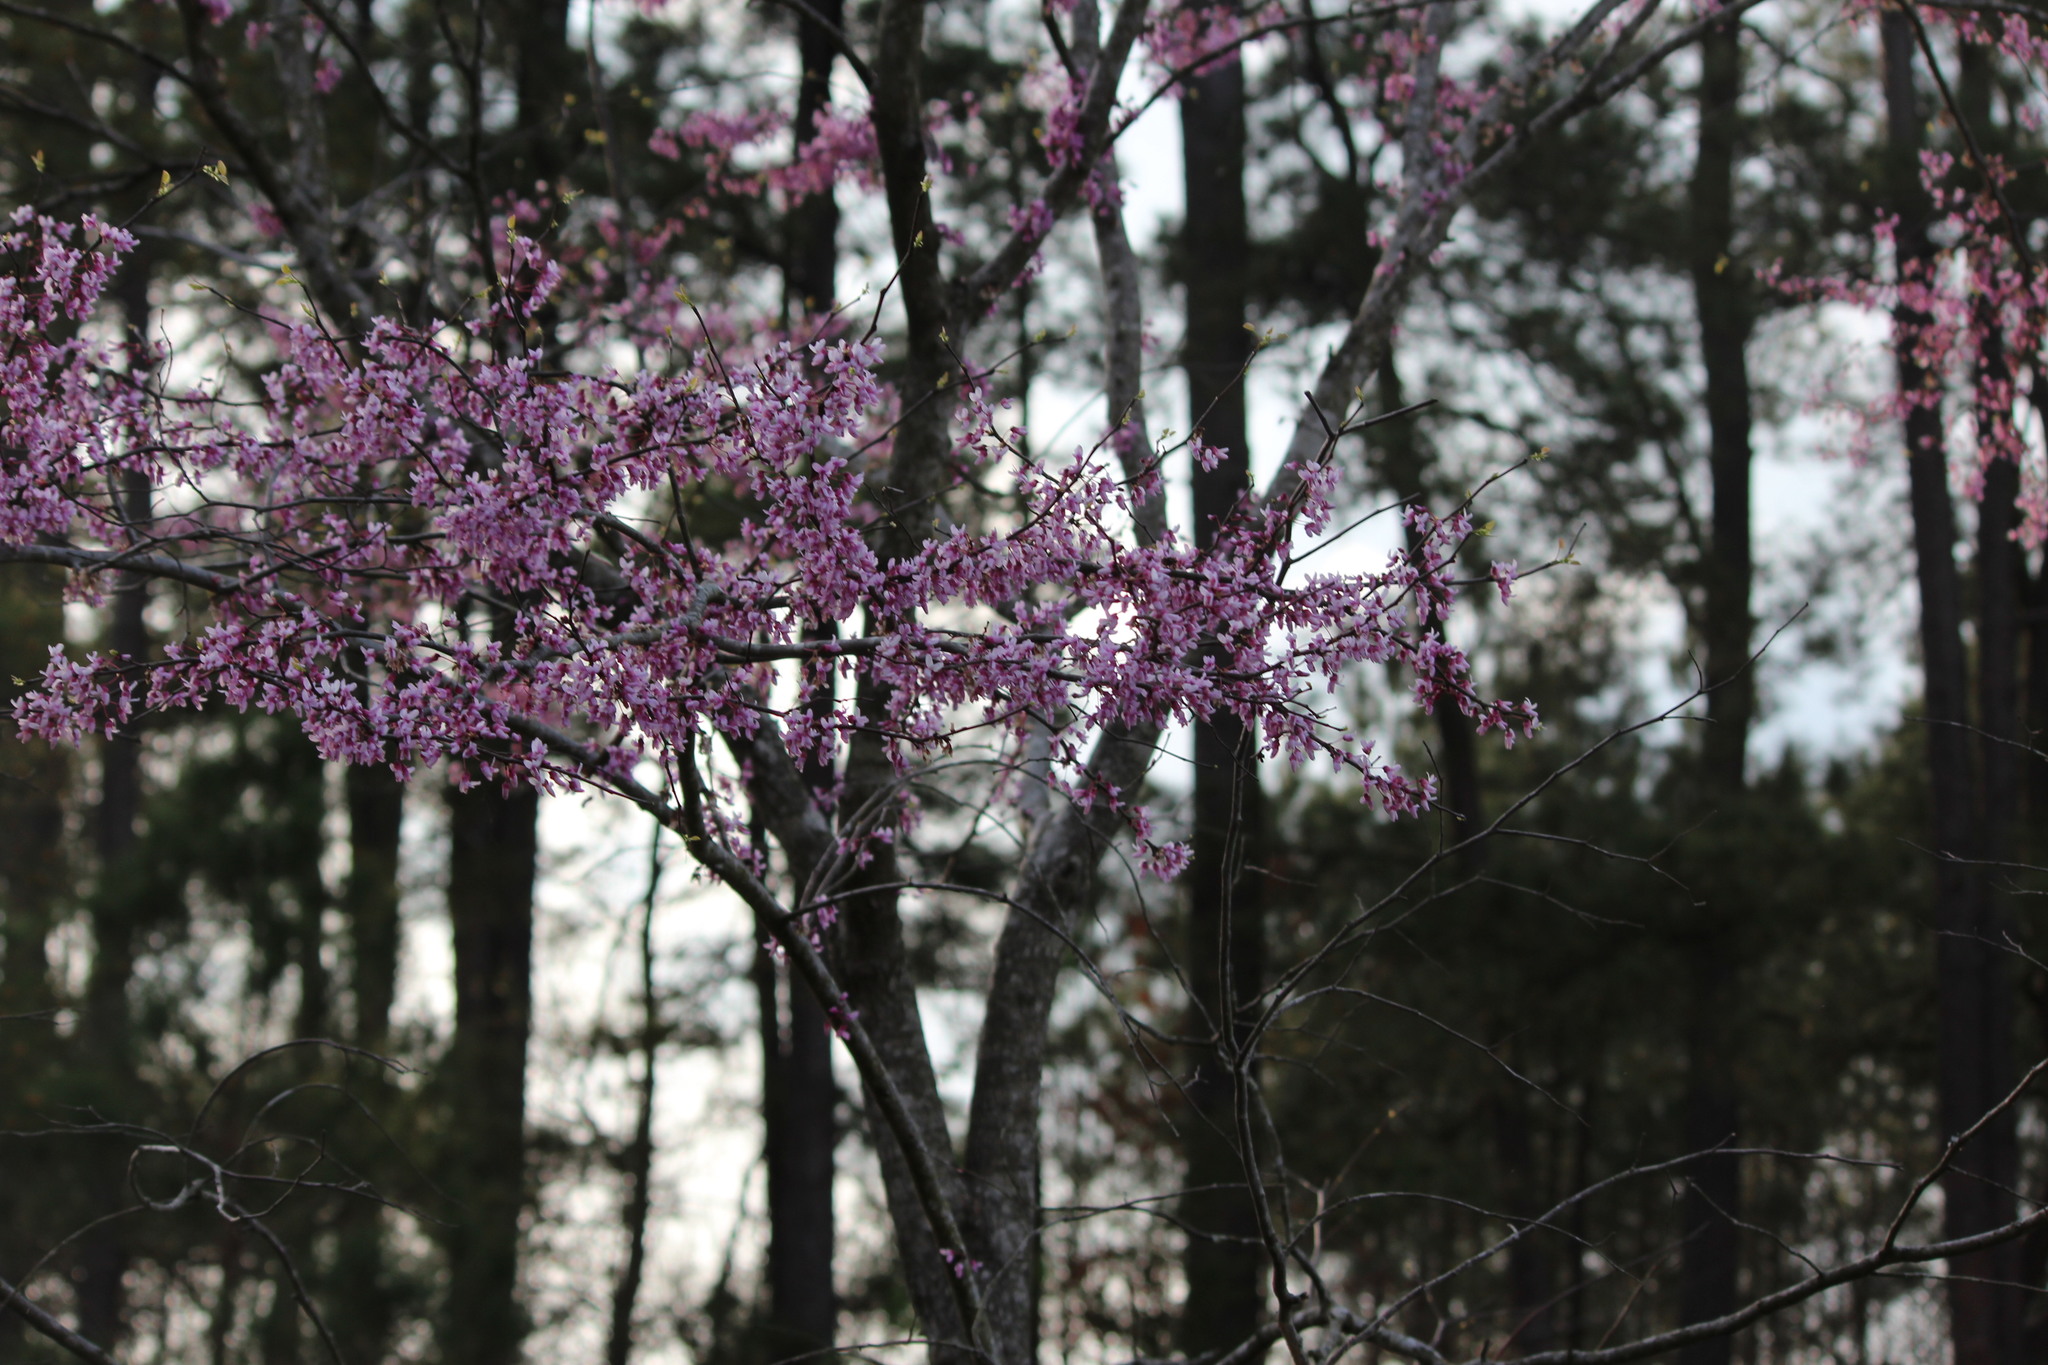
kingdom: Plantae
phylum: Tracheophyta
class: Magnoliopsida
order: Fabales
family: Fabaceae
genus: Cercis
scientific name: Cercis canadensis
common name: Eastern redbud
